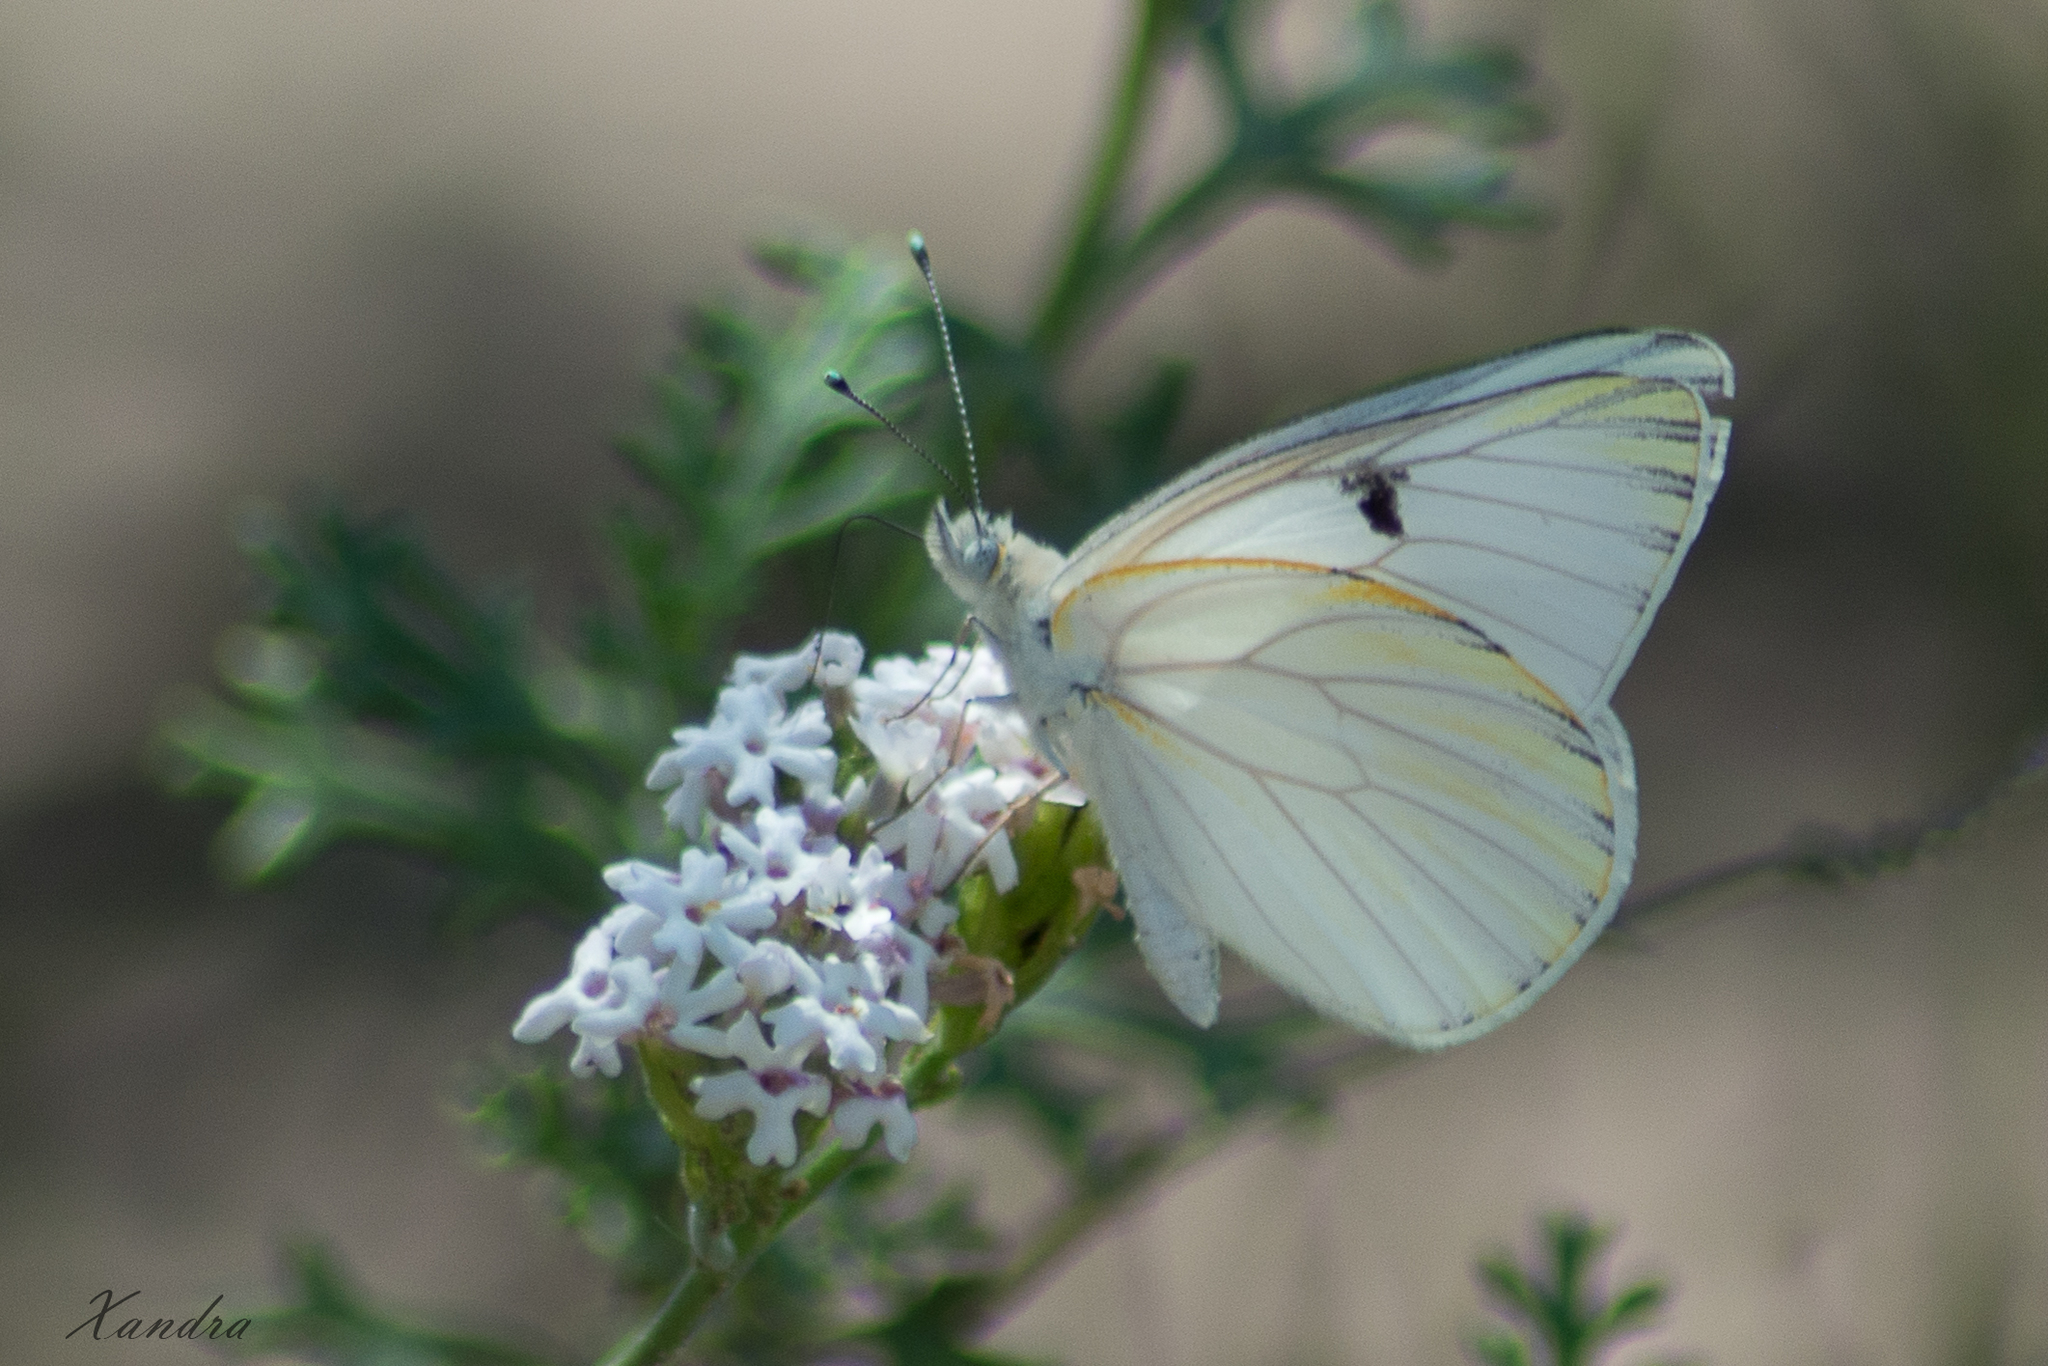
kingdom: Animalia
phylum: Arthropoda
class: Insecta
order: Lepidoptera
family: Pieridae
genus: Tatochila
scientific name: Tatochila mercedis
